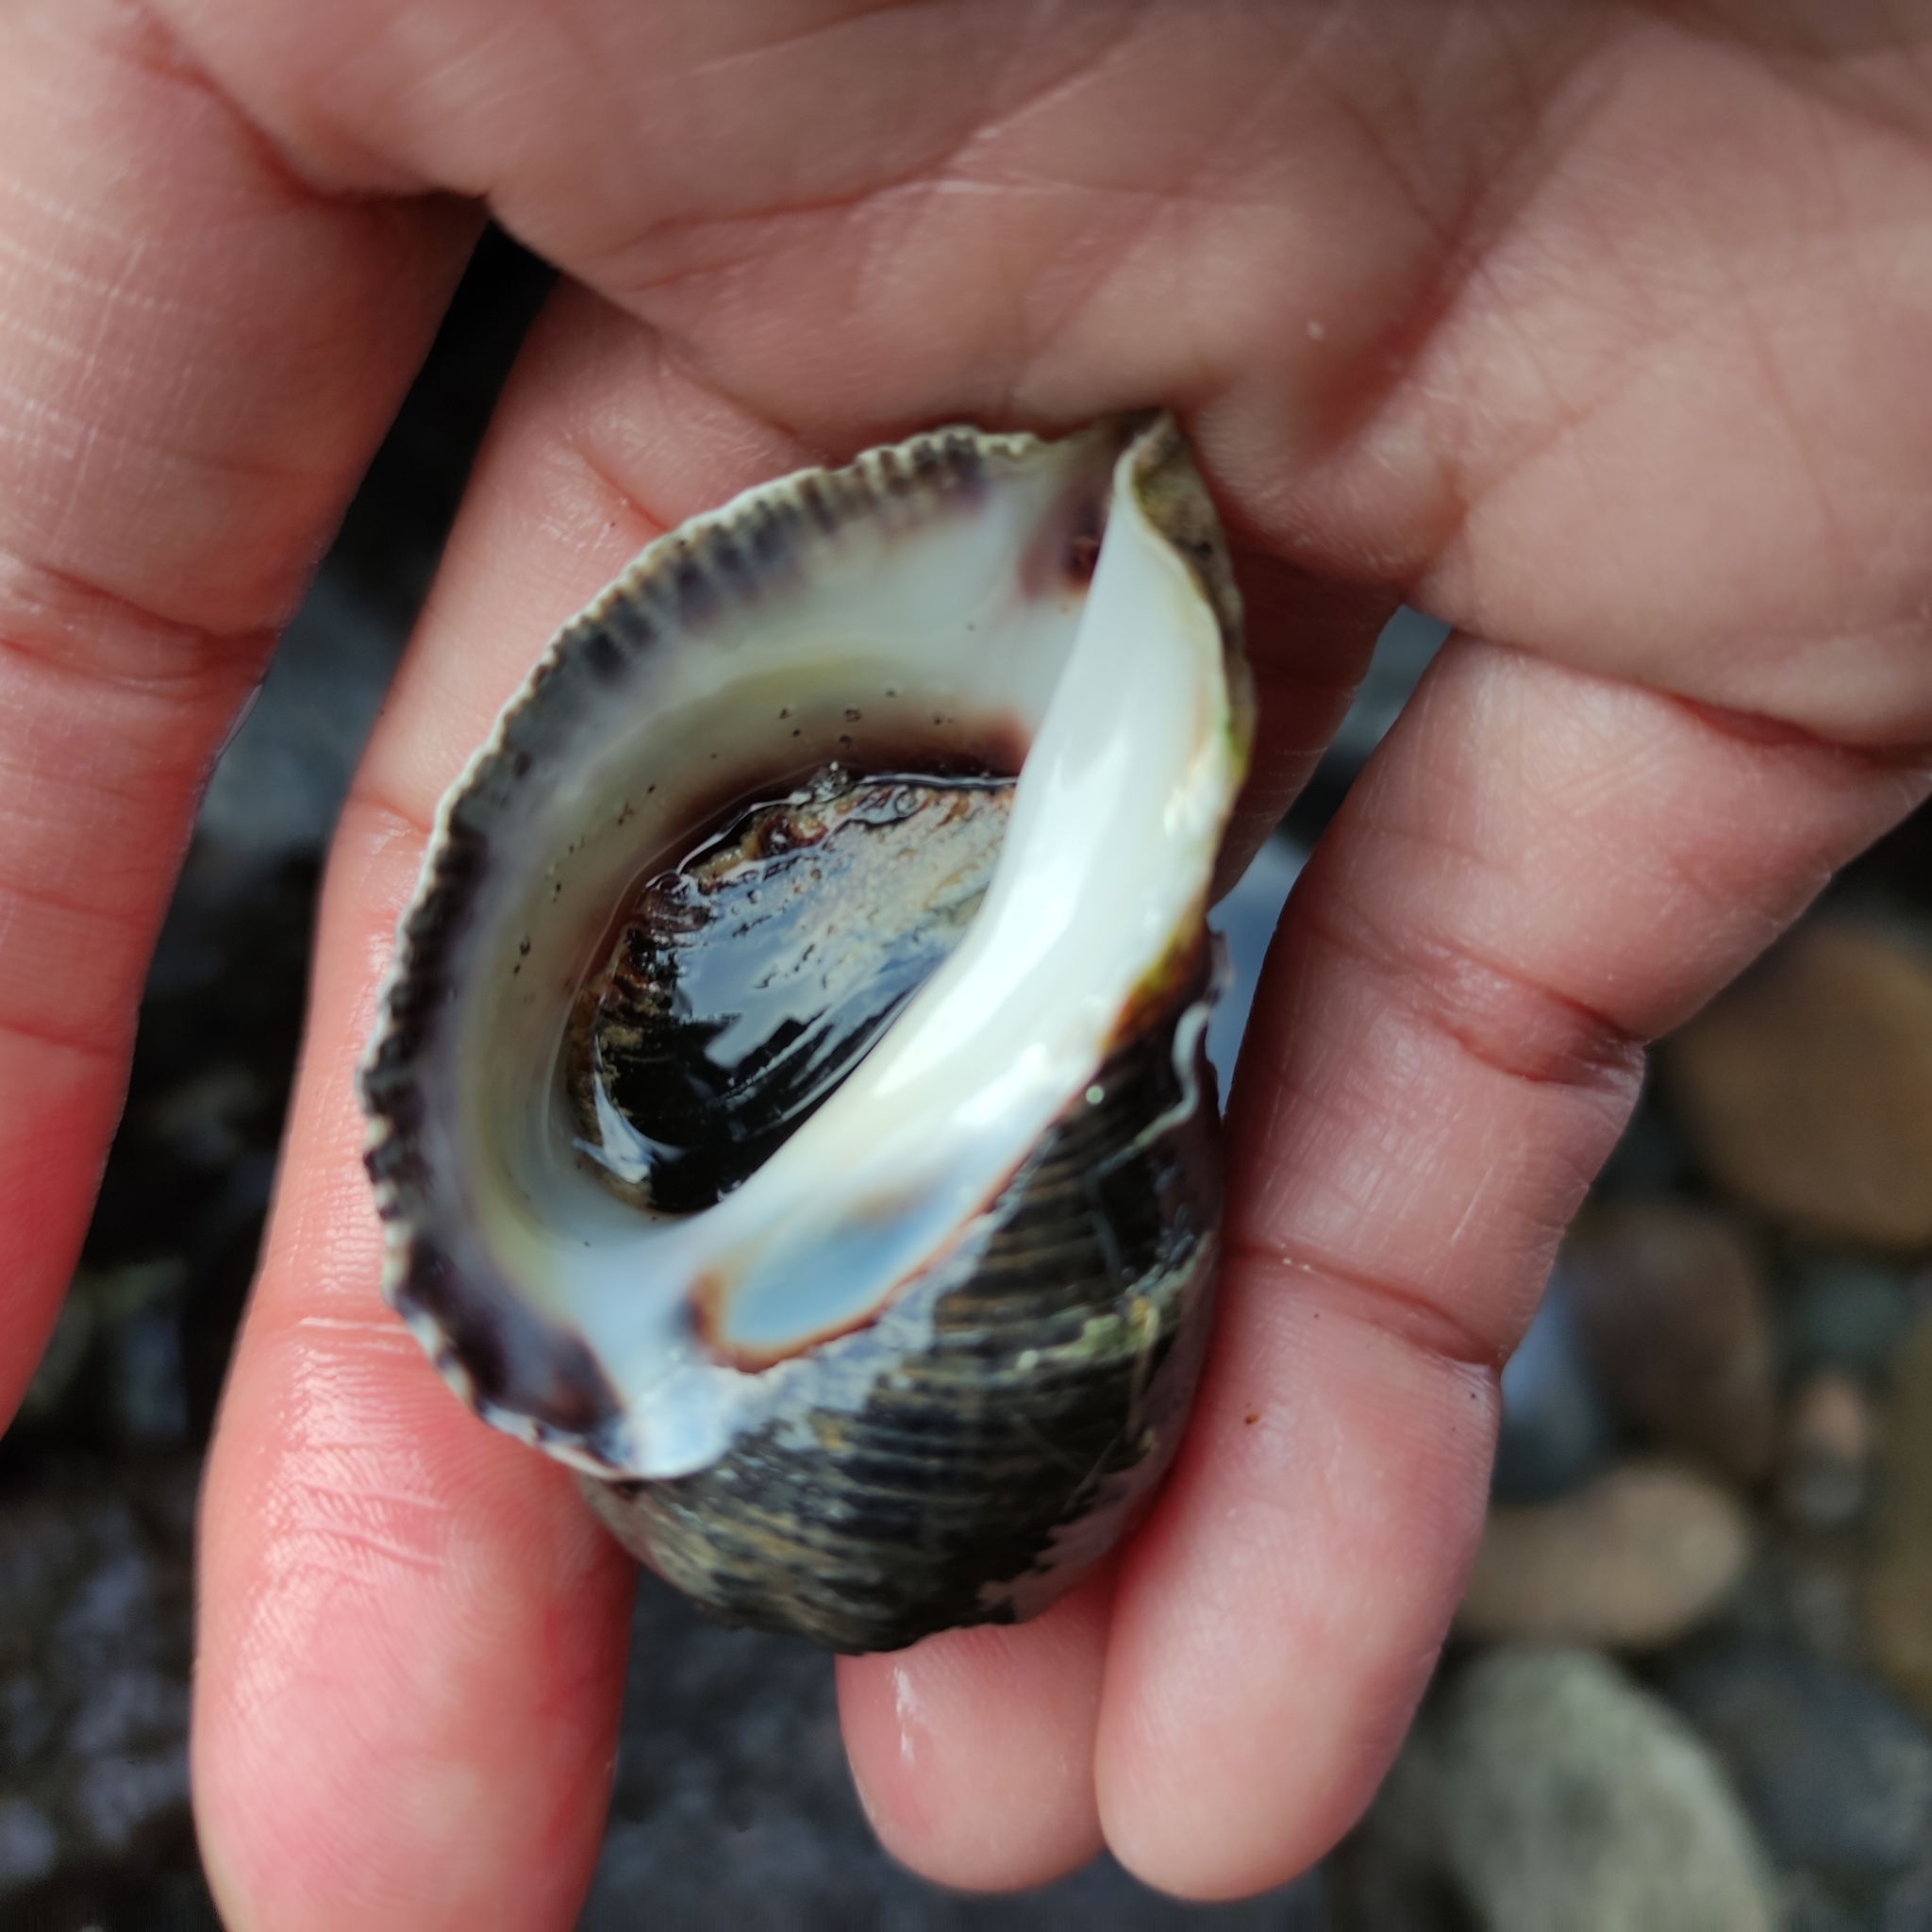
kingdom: Animalia
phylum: Mollusca
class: Gastropoda
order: Neogastropoda
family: Muricidae
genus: Haustrum
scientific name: Haustrum haustorium
